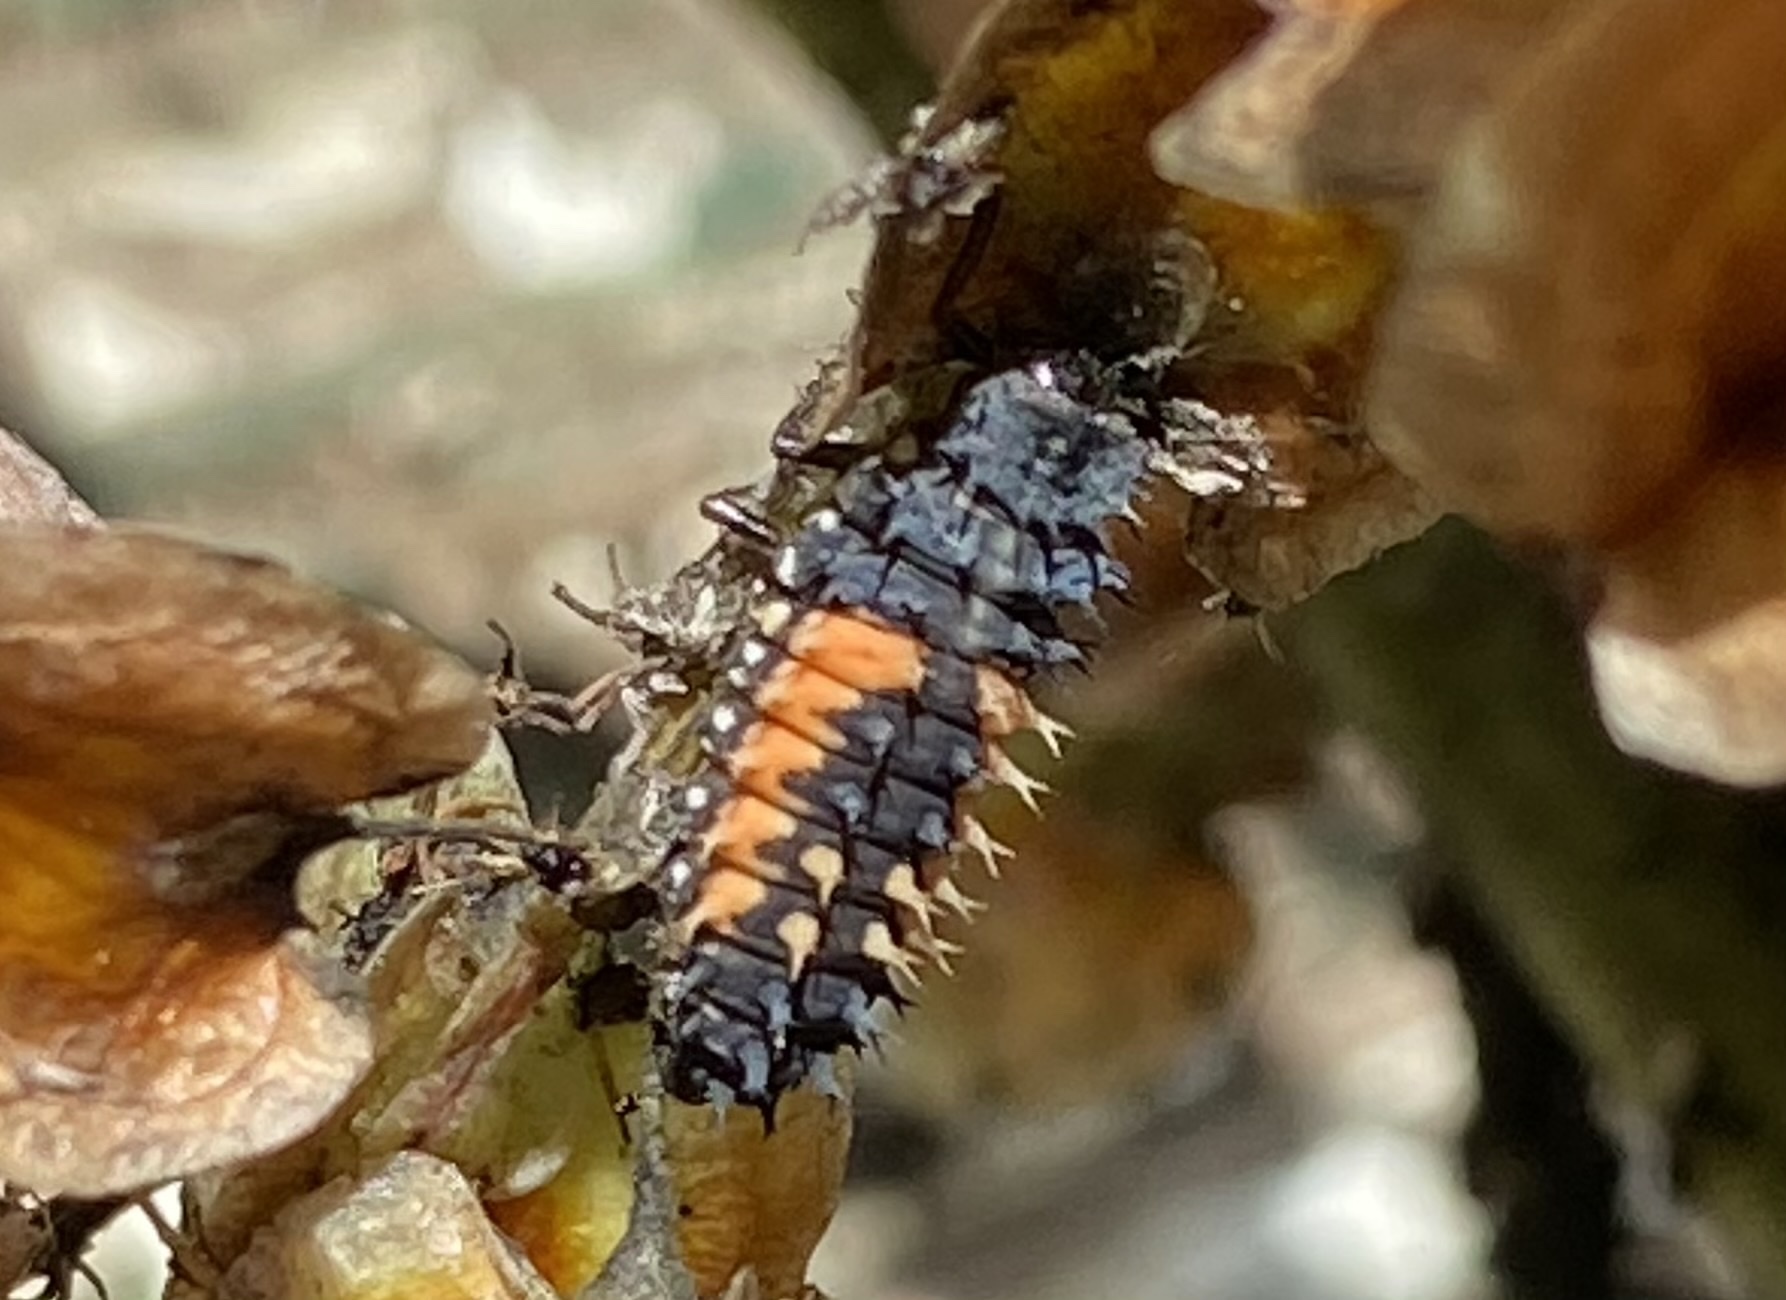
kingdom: Animalia
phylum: Arthropoda
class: Insecta
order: Coleoptera
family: Coccinellidae
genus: Harmonia
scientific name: Harmonia axyridis
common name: Harlequin ladybird
